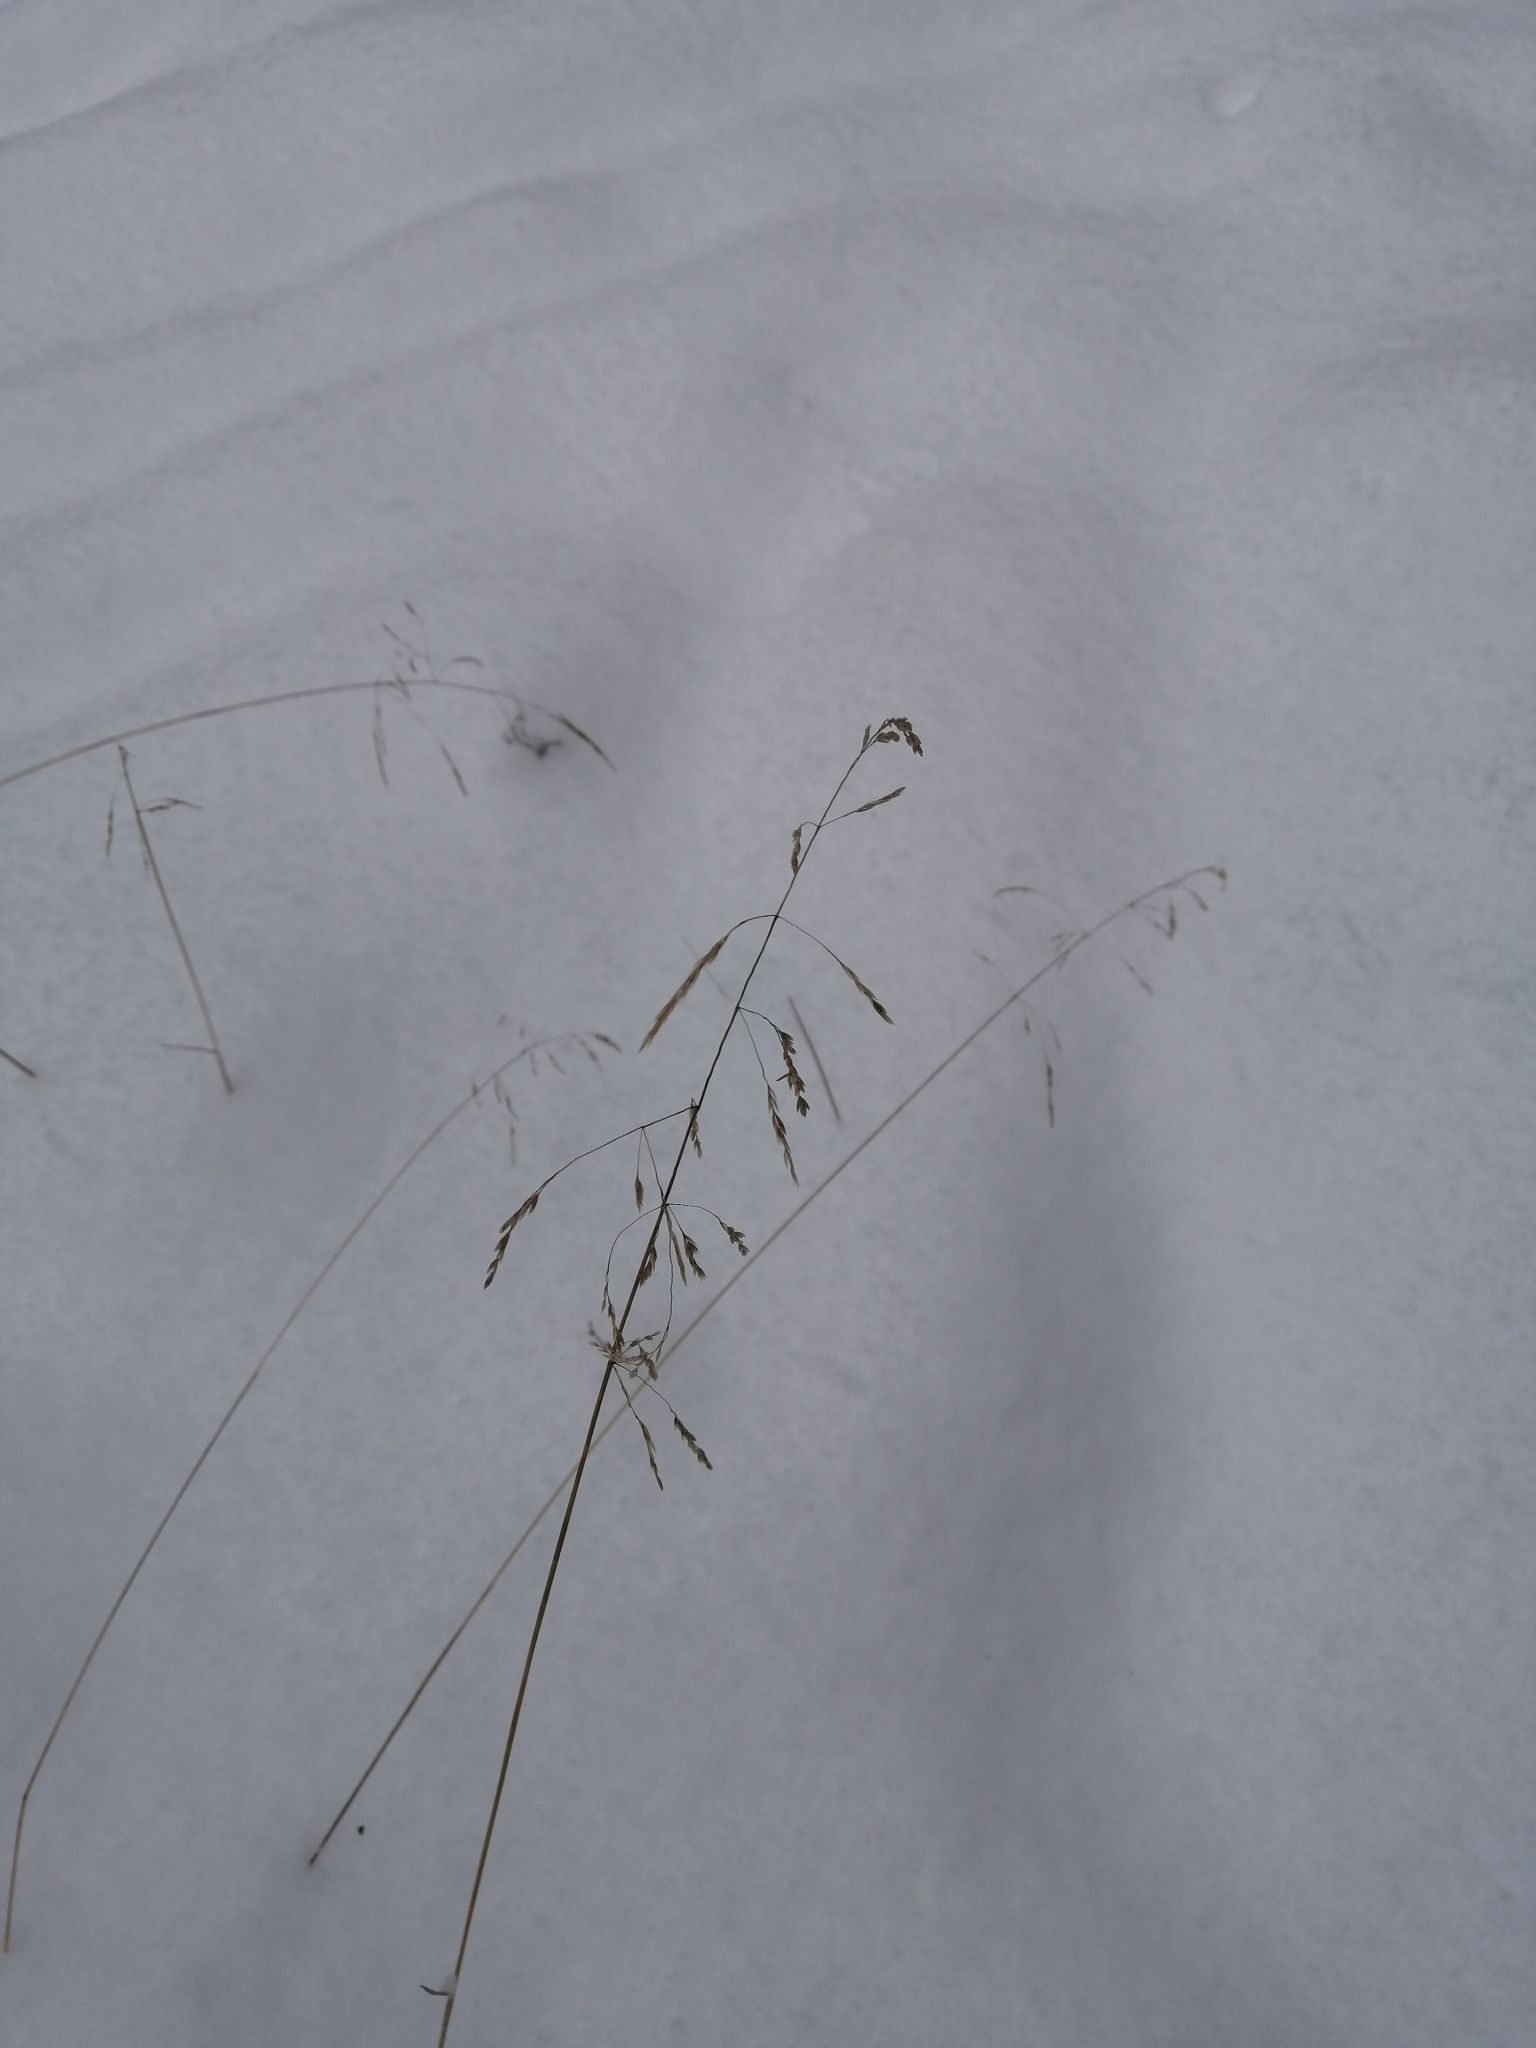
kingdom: Plantae
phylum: Tracheophyta
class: Liliopsida
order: Poales
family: Poaceae
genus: Deschampsia
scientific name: Deschampsia cespitosa
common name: Tufted hair-grass
